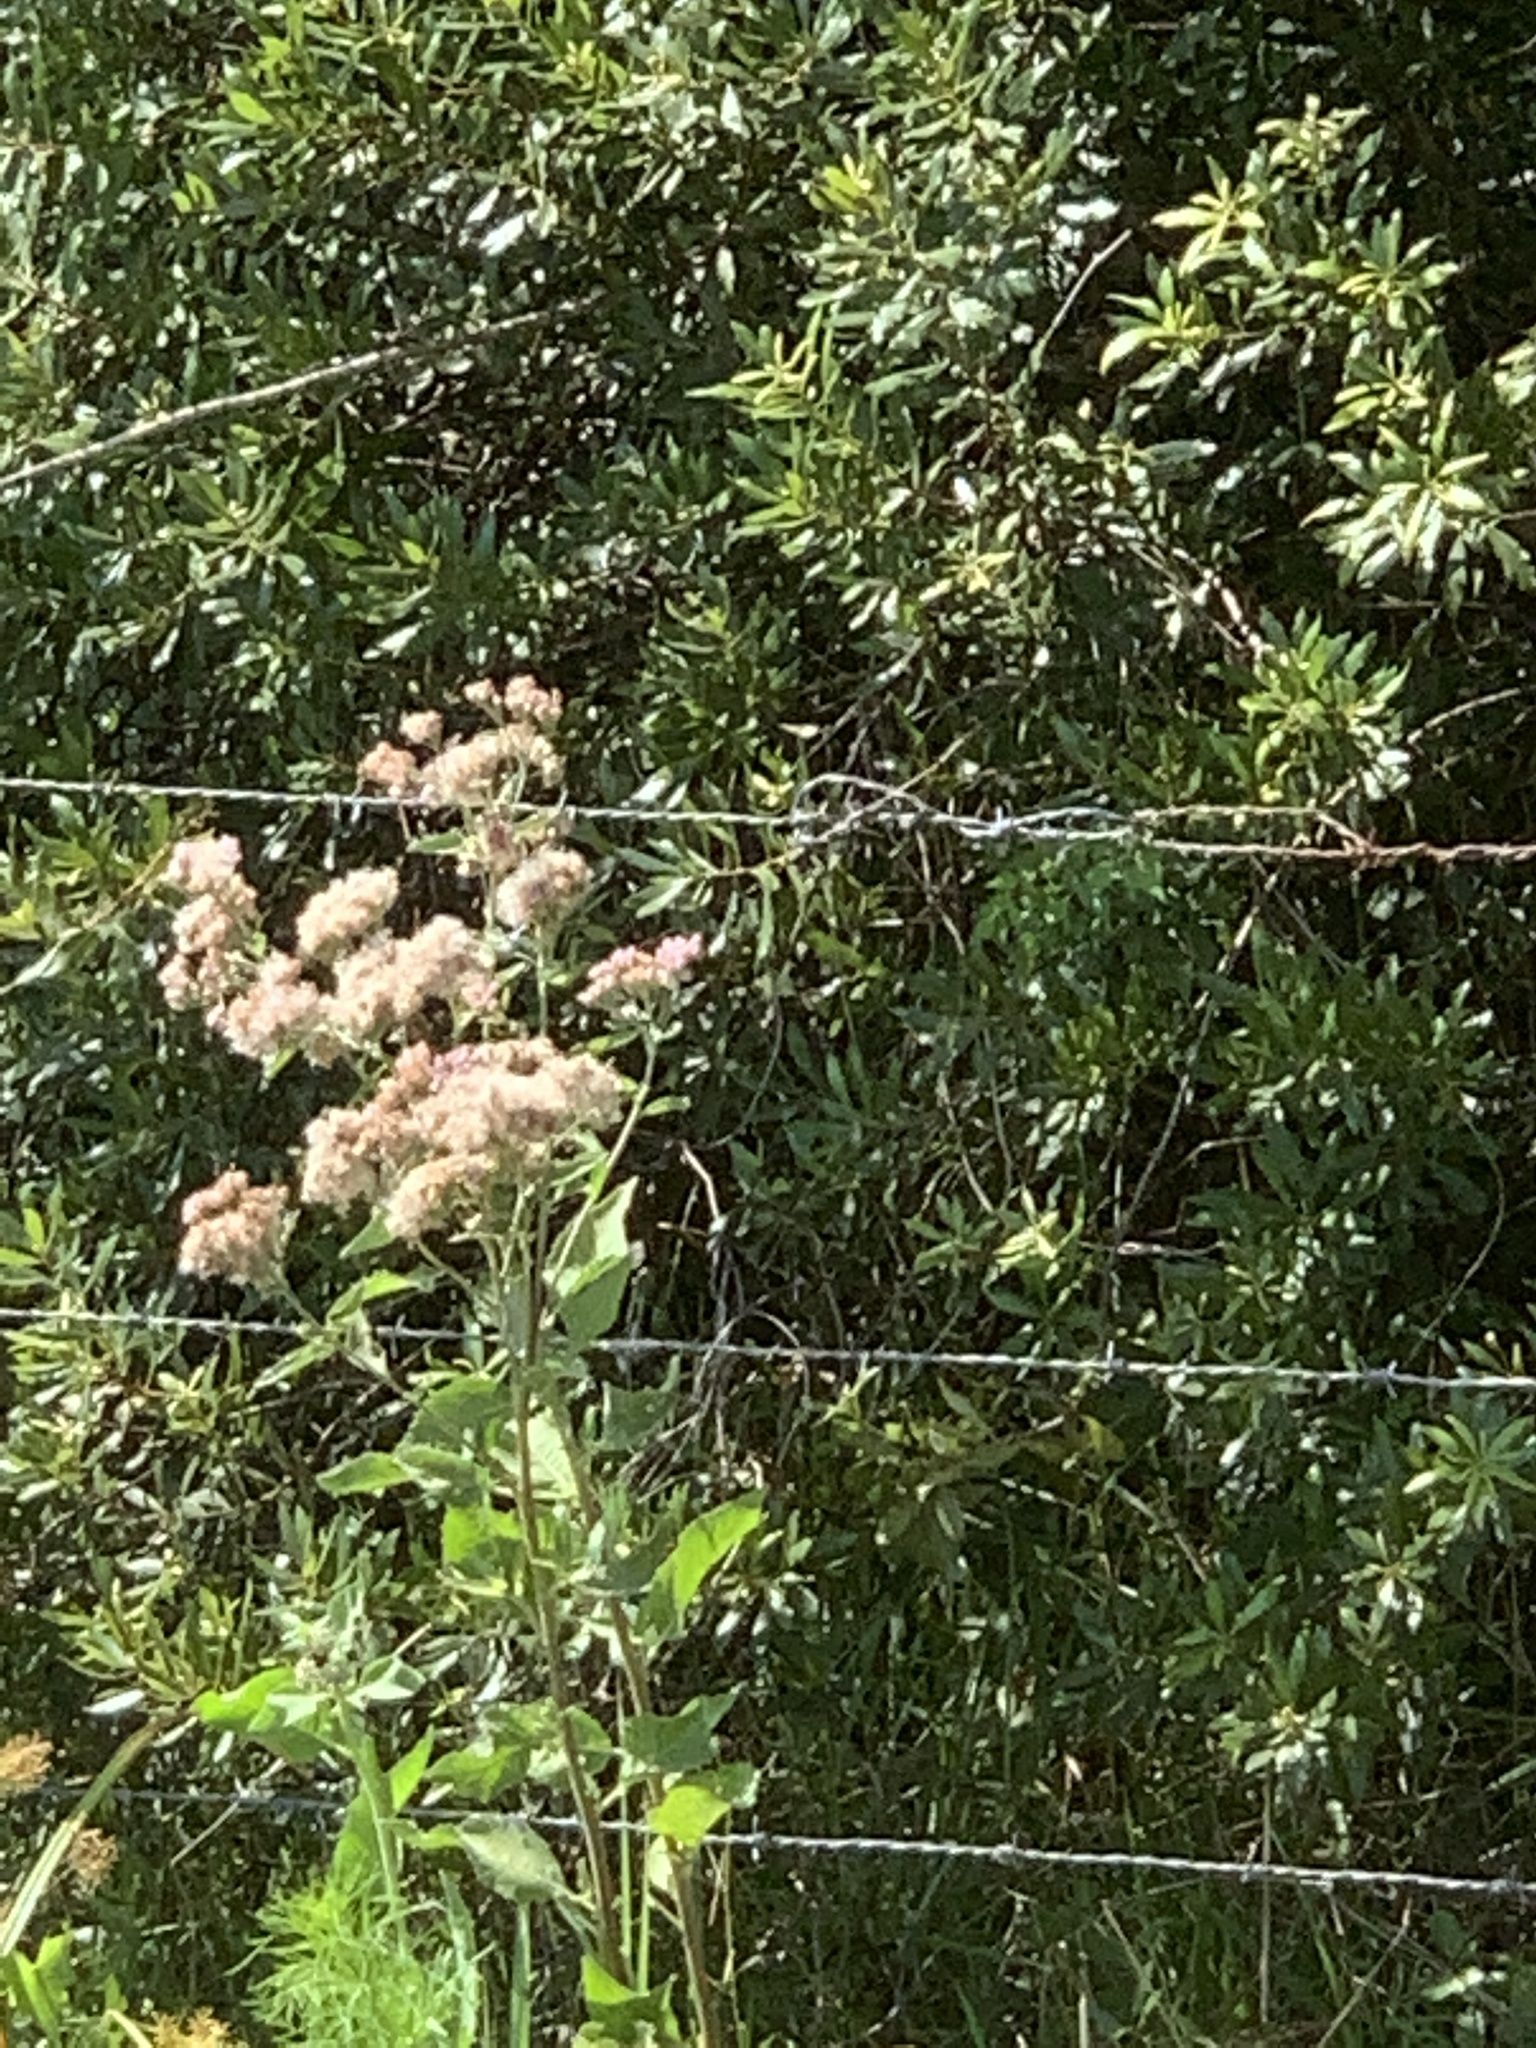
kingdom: Plantae
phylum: Tracheophyta
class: Magnoliopsida
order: Asterales
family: Asteraceae
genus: Pluchea
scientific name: Pluchea odorata
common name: Saltmarsh fleabane
